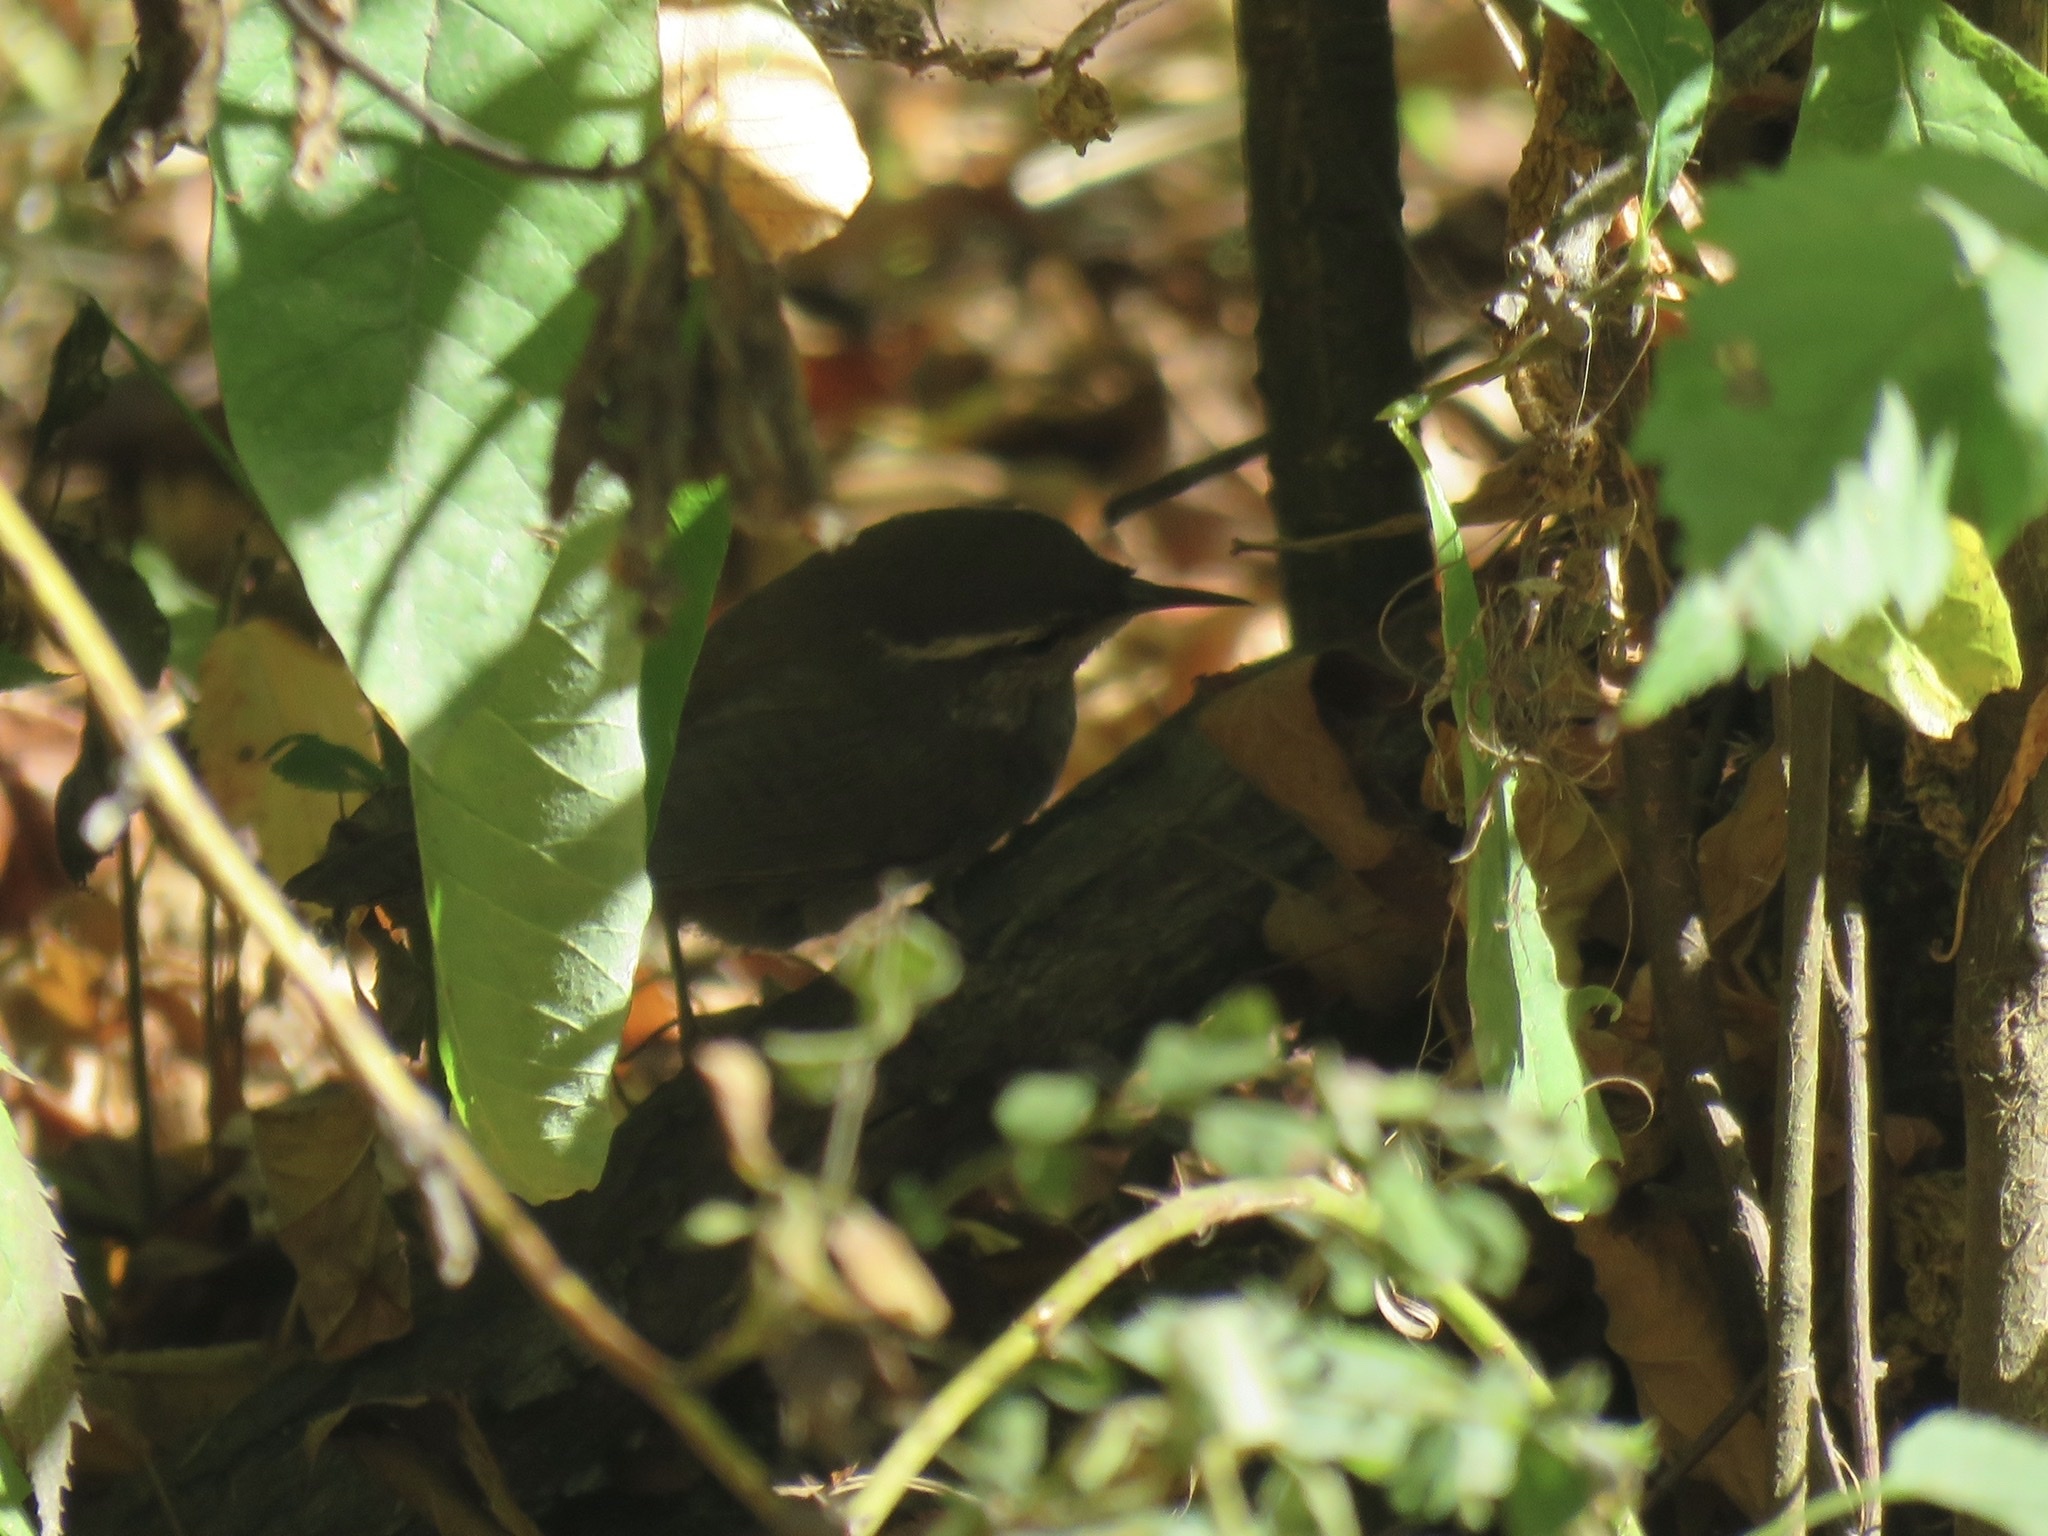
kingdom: Animalia
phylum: Chordata
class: Aves
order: Passeriformes
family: Troglodytidae
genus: Thryomanes
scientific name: Thryomanes bewickii
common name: Bewick's wren
